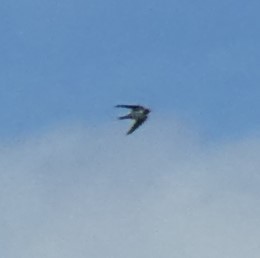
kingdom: Animalia
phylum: Chordata
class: Aves
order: Passeriformes
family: Hirundinidae
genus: Hirundo
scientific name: Hirundo rustica
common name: Barn swallow
